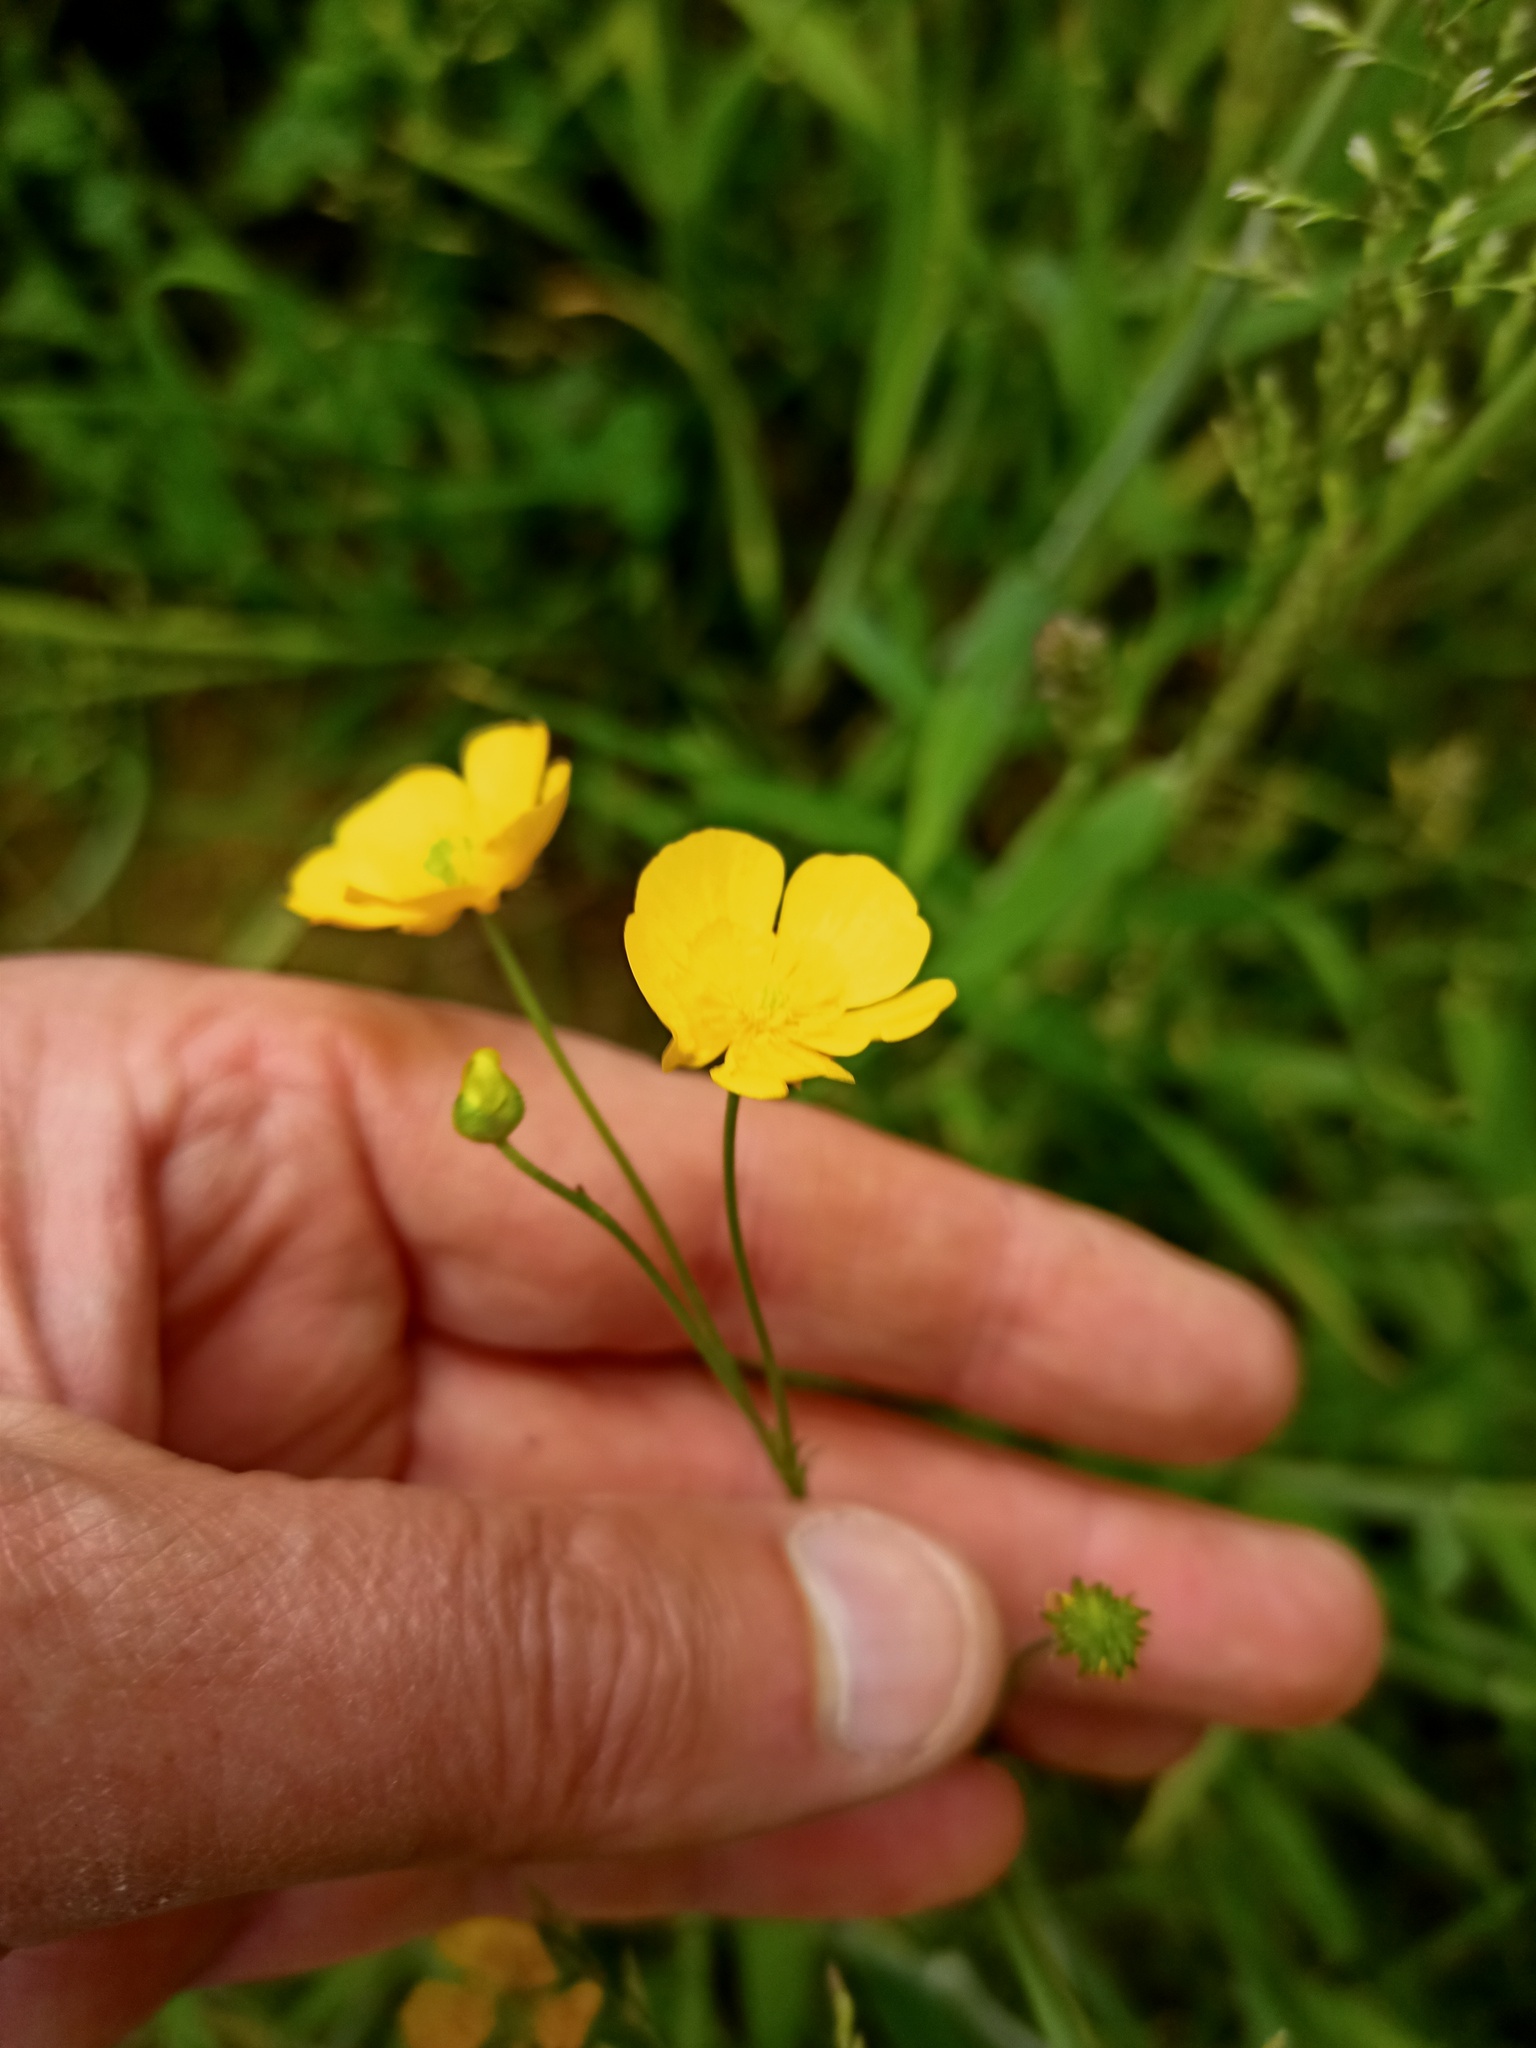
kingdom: Plantae
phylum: Tracheophyta
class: Magnoliopsida
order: Ranunculales
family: Ranunculaceae
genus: Ranunculus
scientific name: Ranunculus acris
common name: Meadow buttercup
